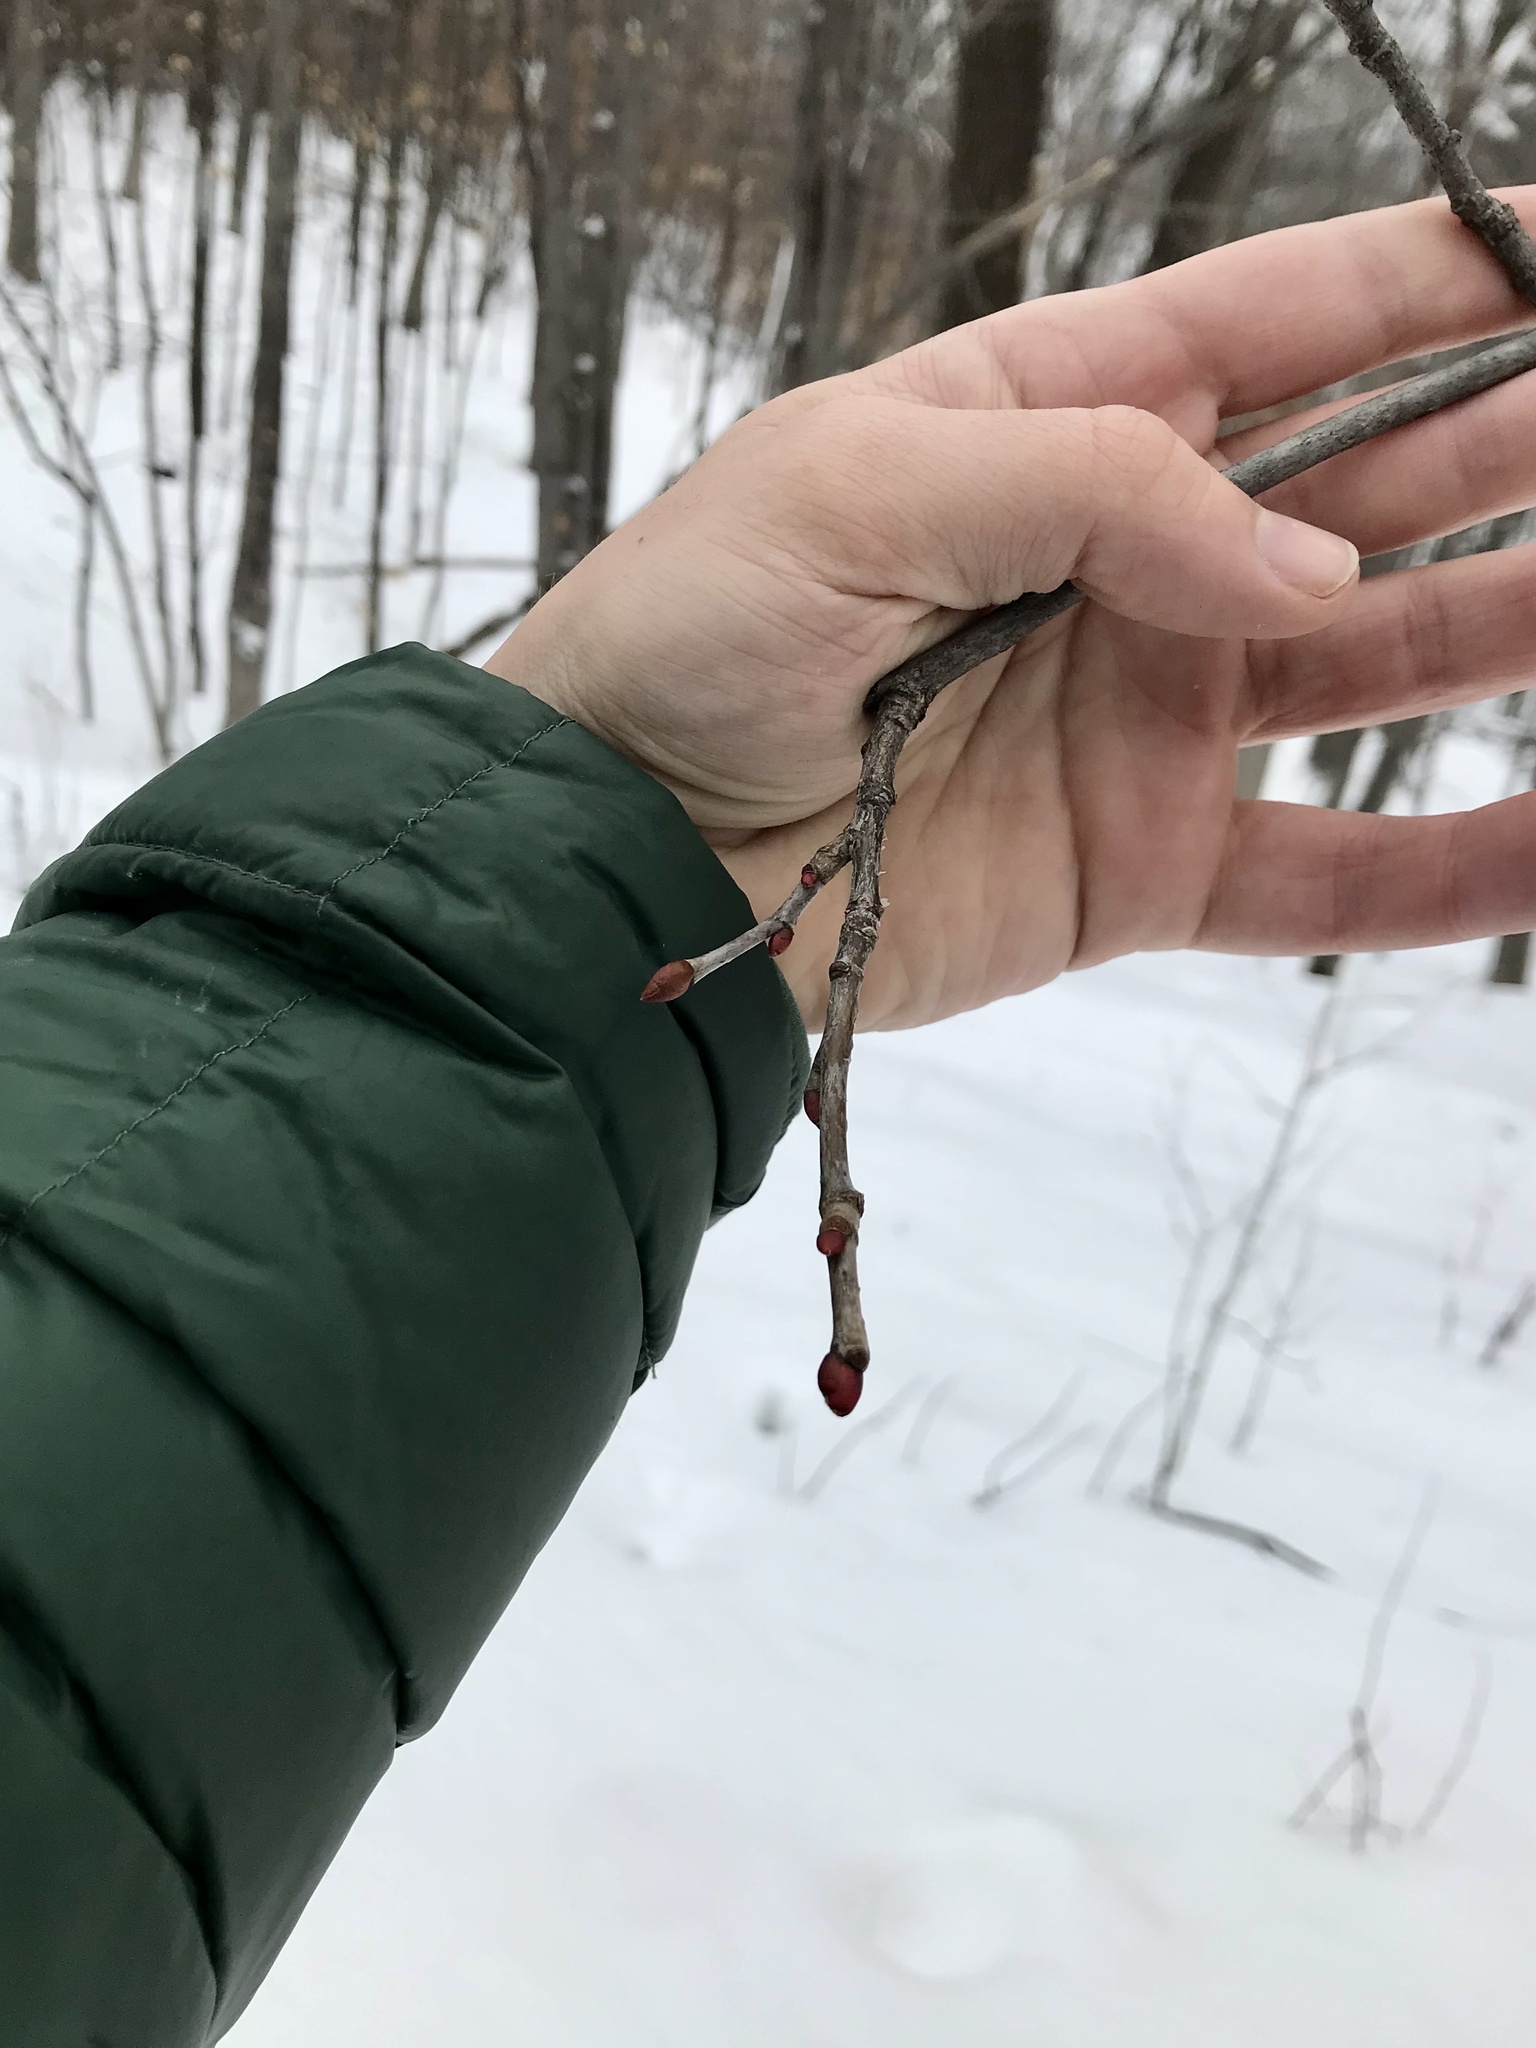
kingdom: Plantae
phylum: Tracheophyta
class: Magnoliopsida
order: Malvales
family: Malvaceae
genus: Tilia
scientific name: Tilia americana
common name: Basswood
